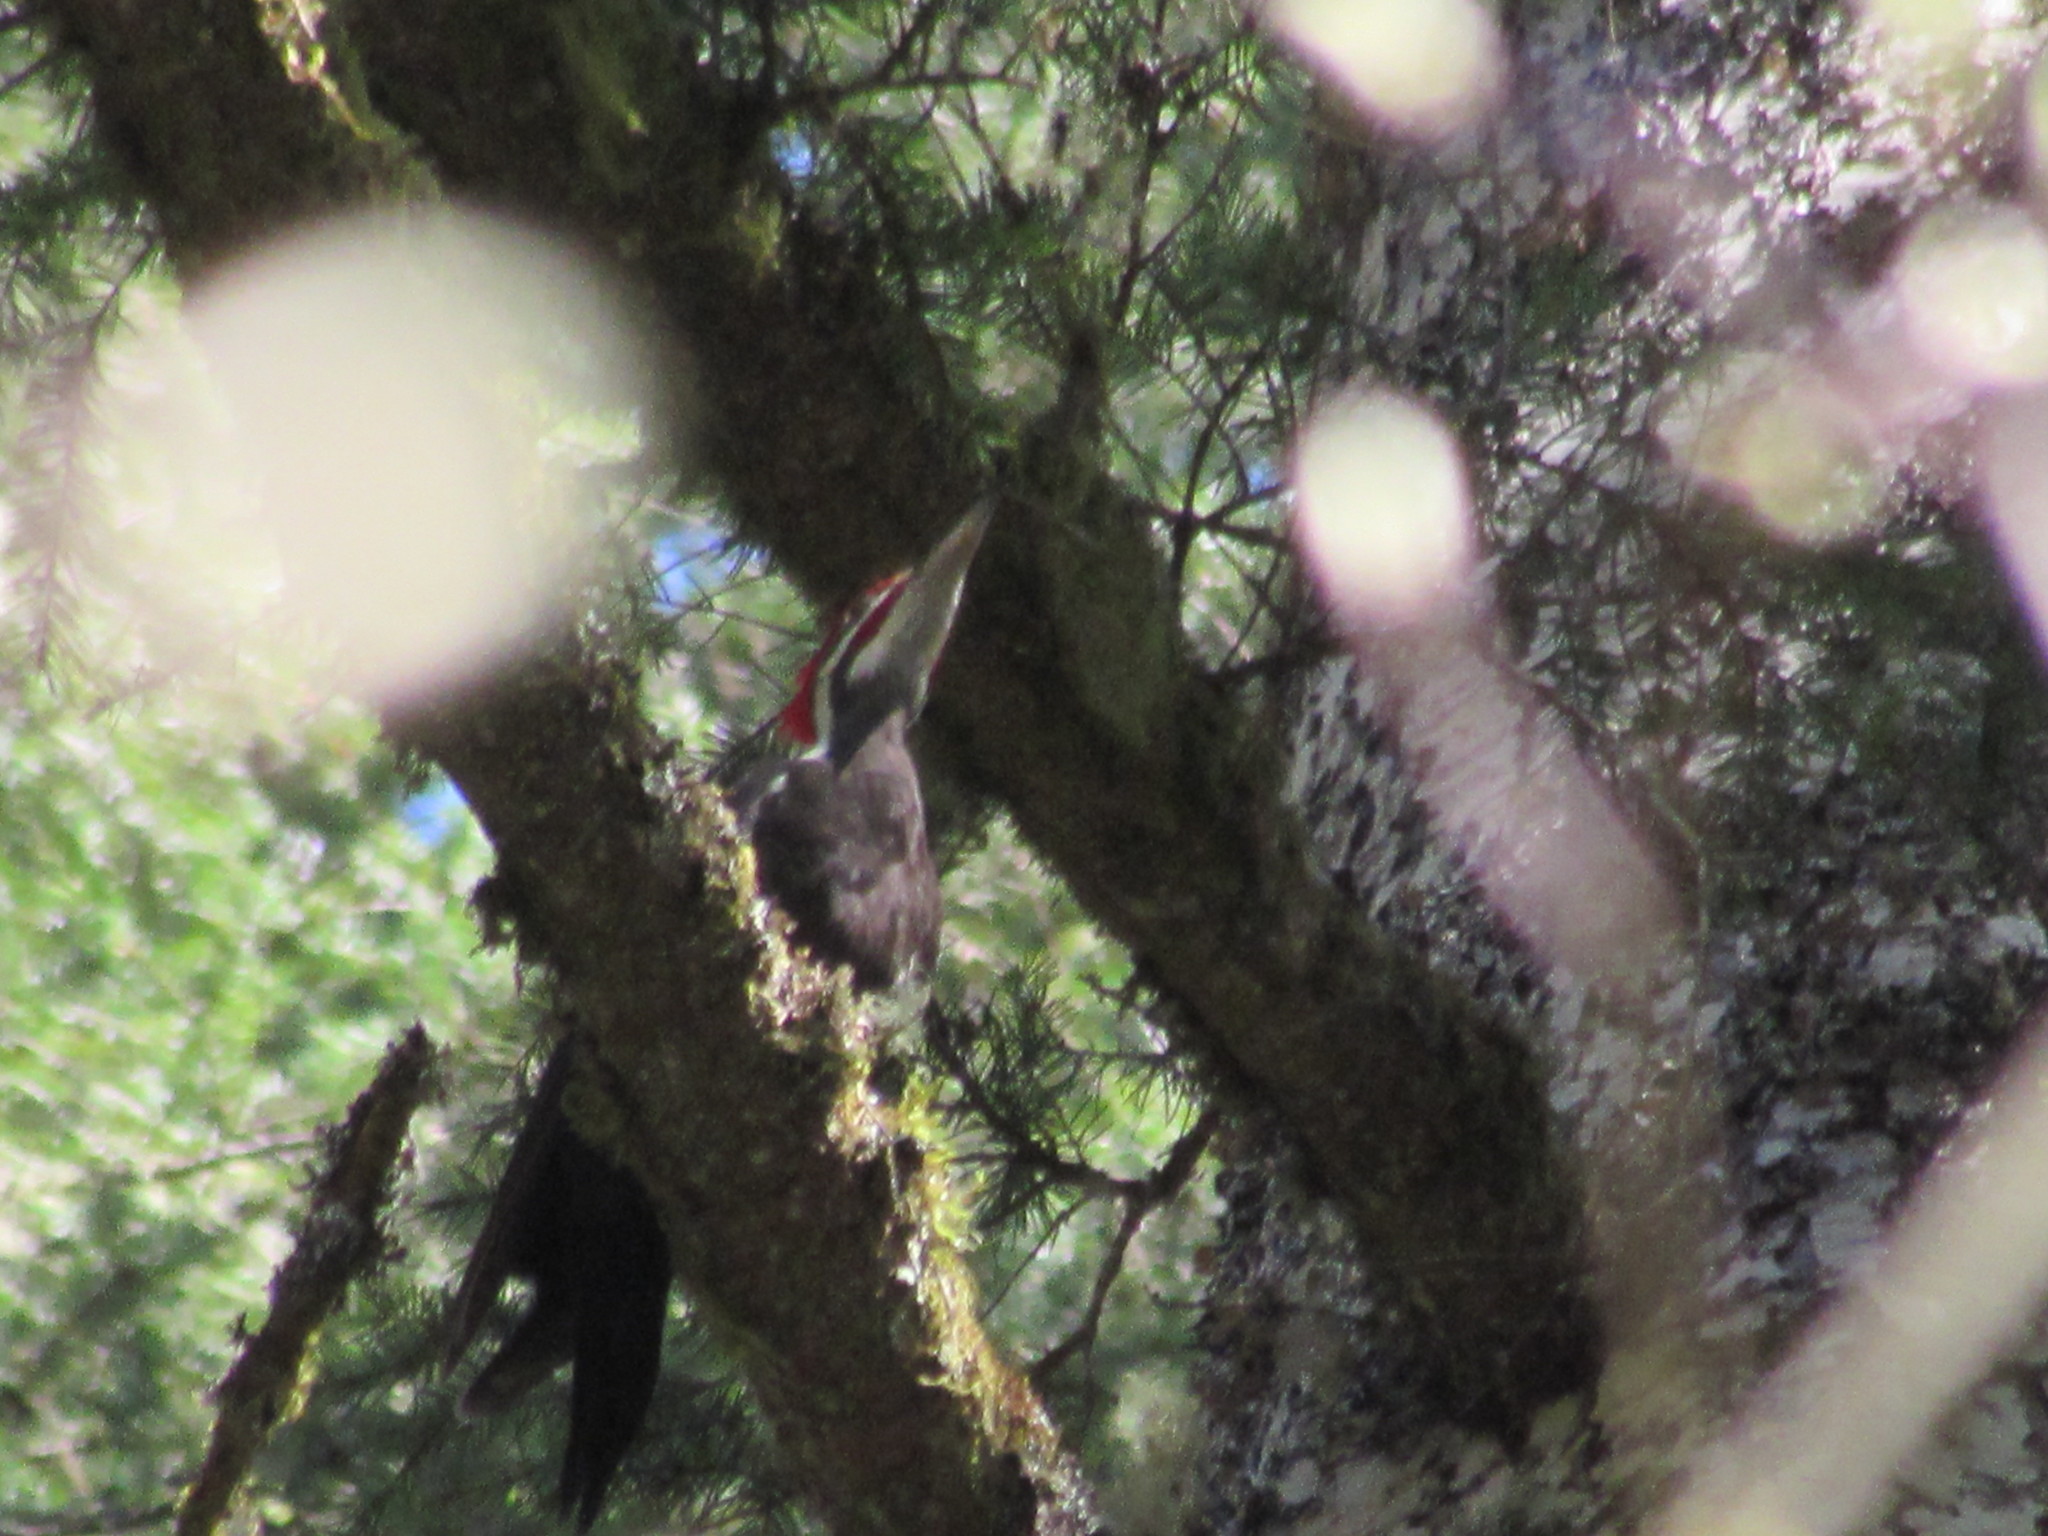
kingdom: Animalia
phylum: Chordata
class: Aves
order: Piciformes
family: Picidae
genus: Dryocopus
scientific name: Dryocopus pileatus
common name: Pileated woodpecker
